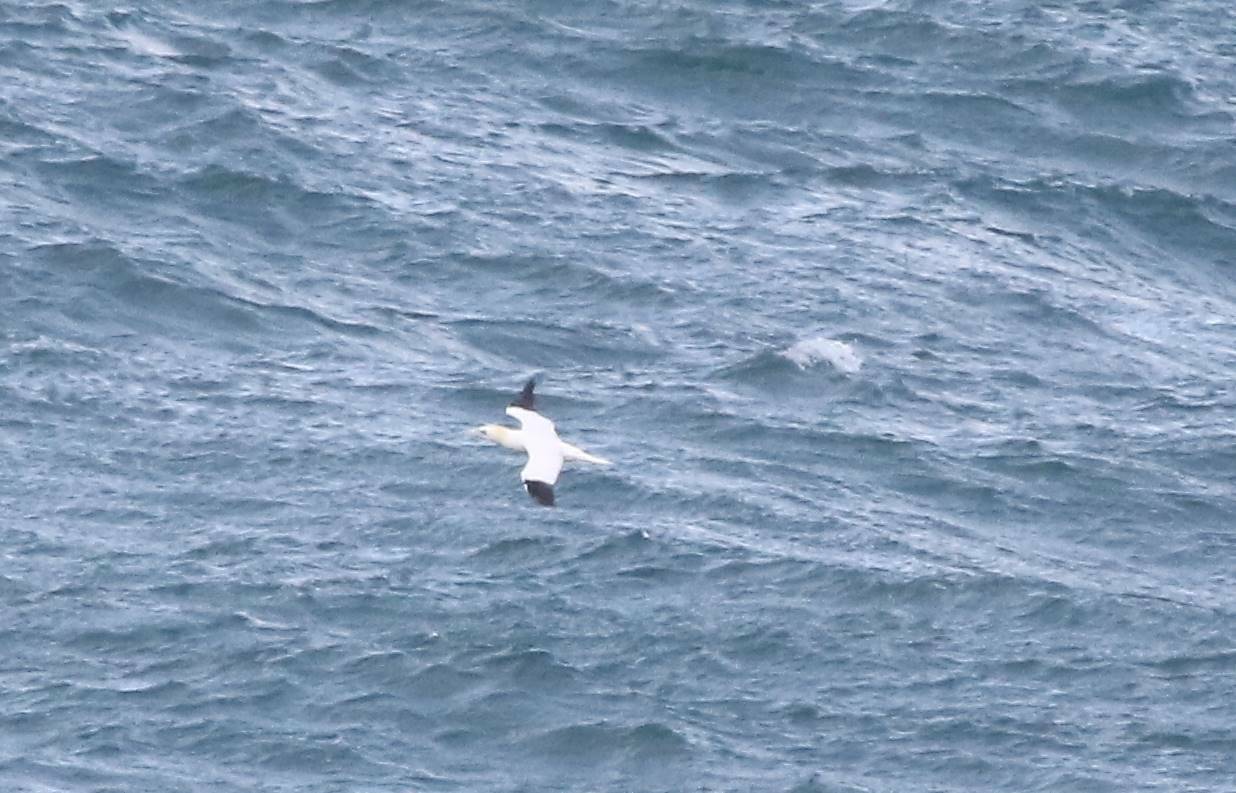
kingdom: Animalia
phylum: Chordata
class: Aves
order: Suliformes
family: Sulidae
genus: Morus
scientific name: Morus bassanus
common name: Northern gannet
